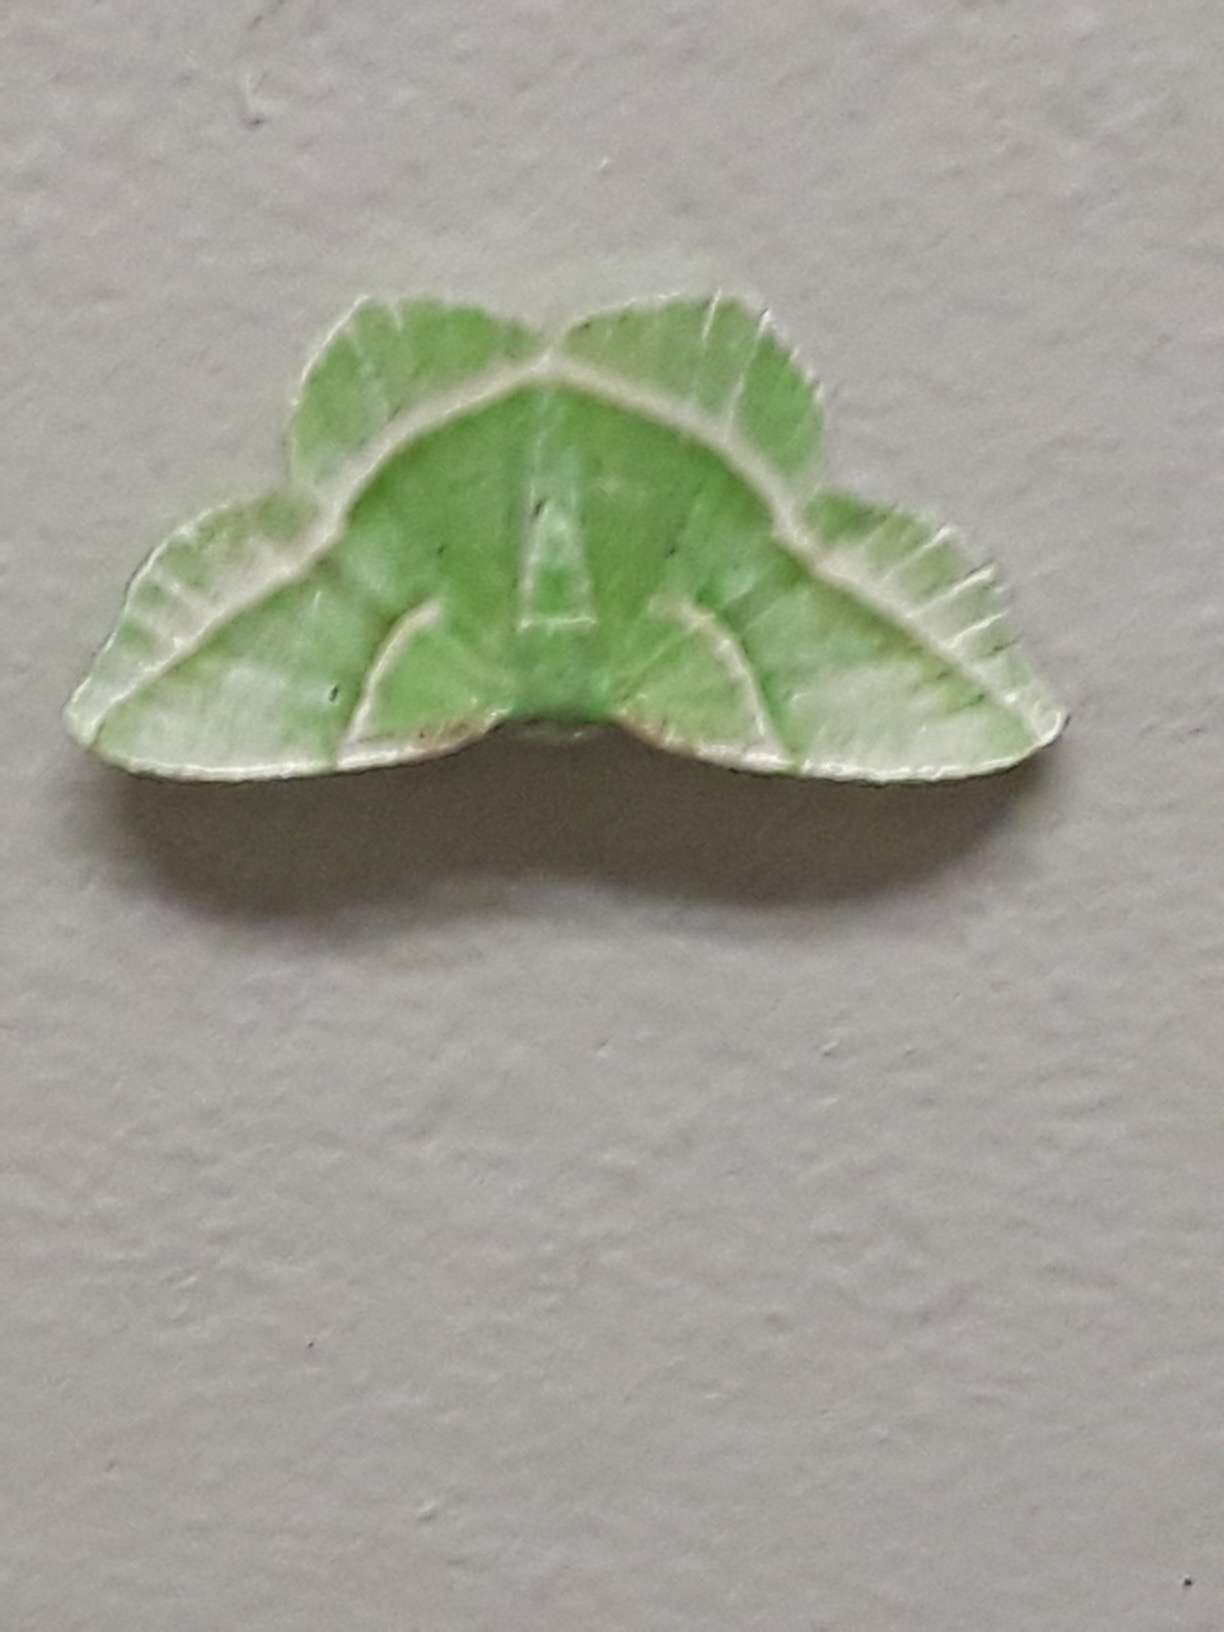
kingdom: Animalia
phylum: Arthropoda
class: Insecta
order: Lepidoptera
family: Geometridae
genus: Dichorda
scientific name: Dichorda iridaria
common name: Showy emerald
